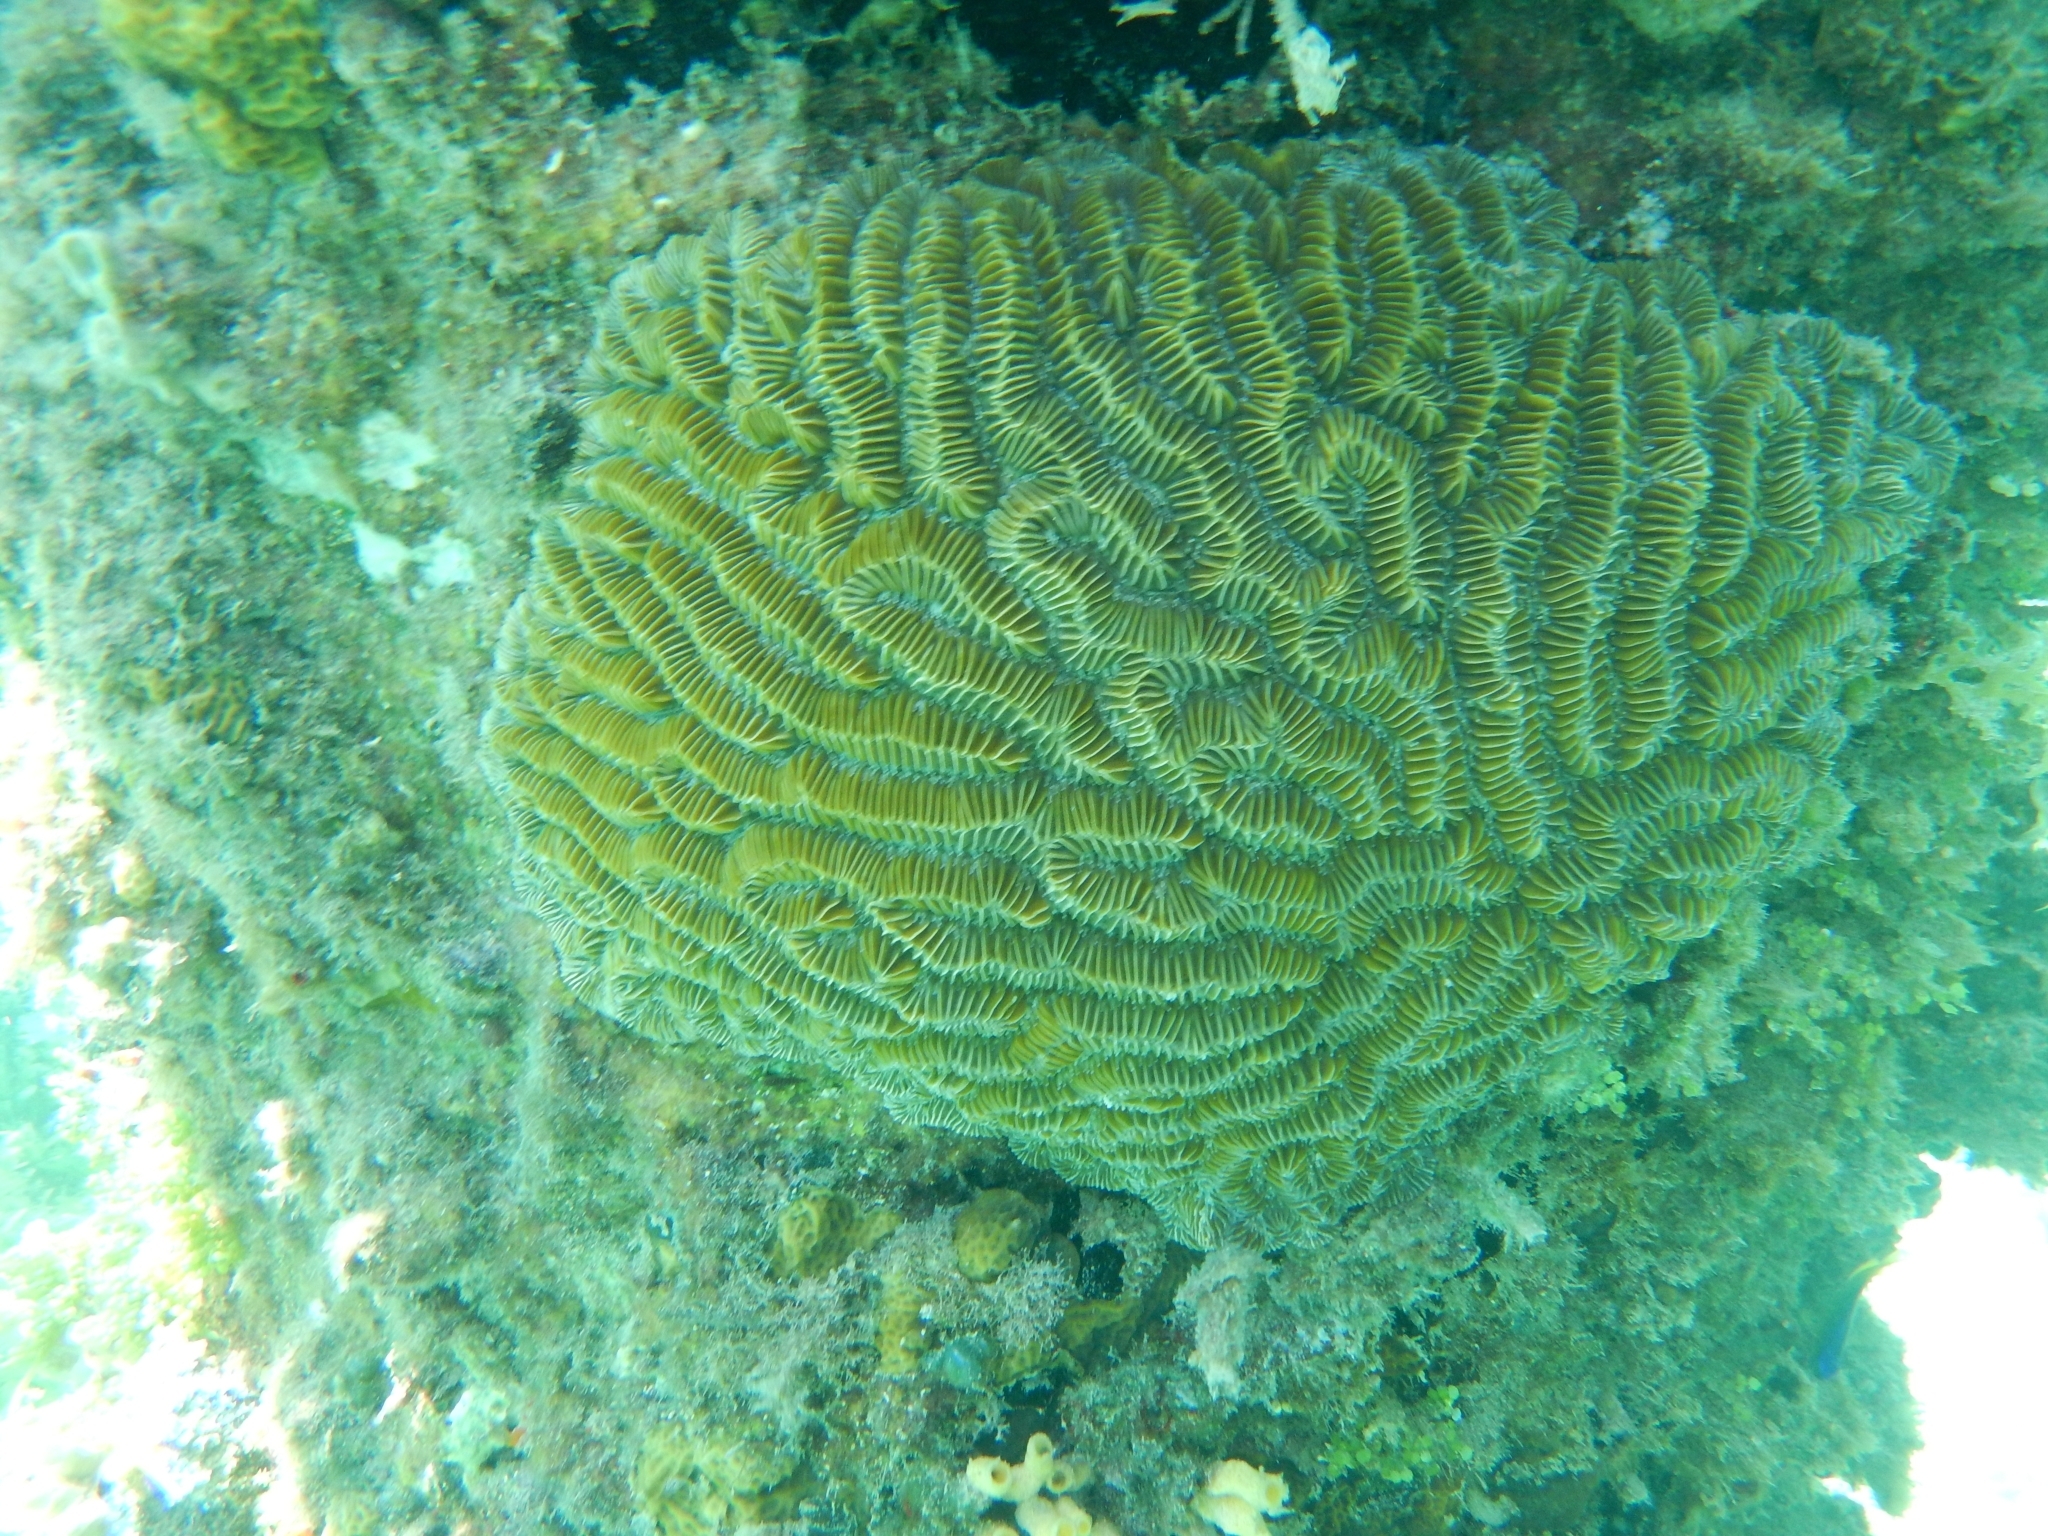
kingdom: Animalia
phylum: Cnidaria
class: Anthozoa
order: Scleractinia
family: Meandrinidae
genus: Meandrina
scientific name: Meandrina meandrites
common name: Maze coral
